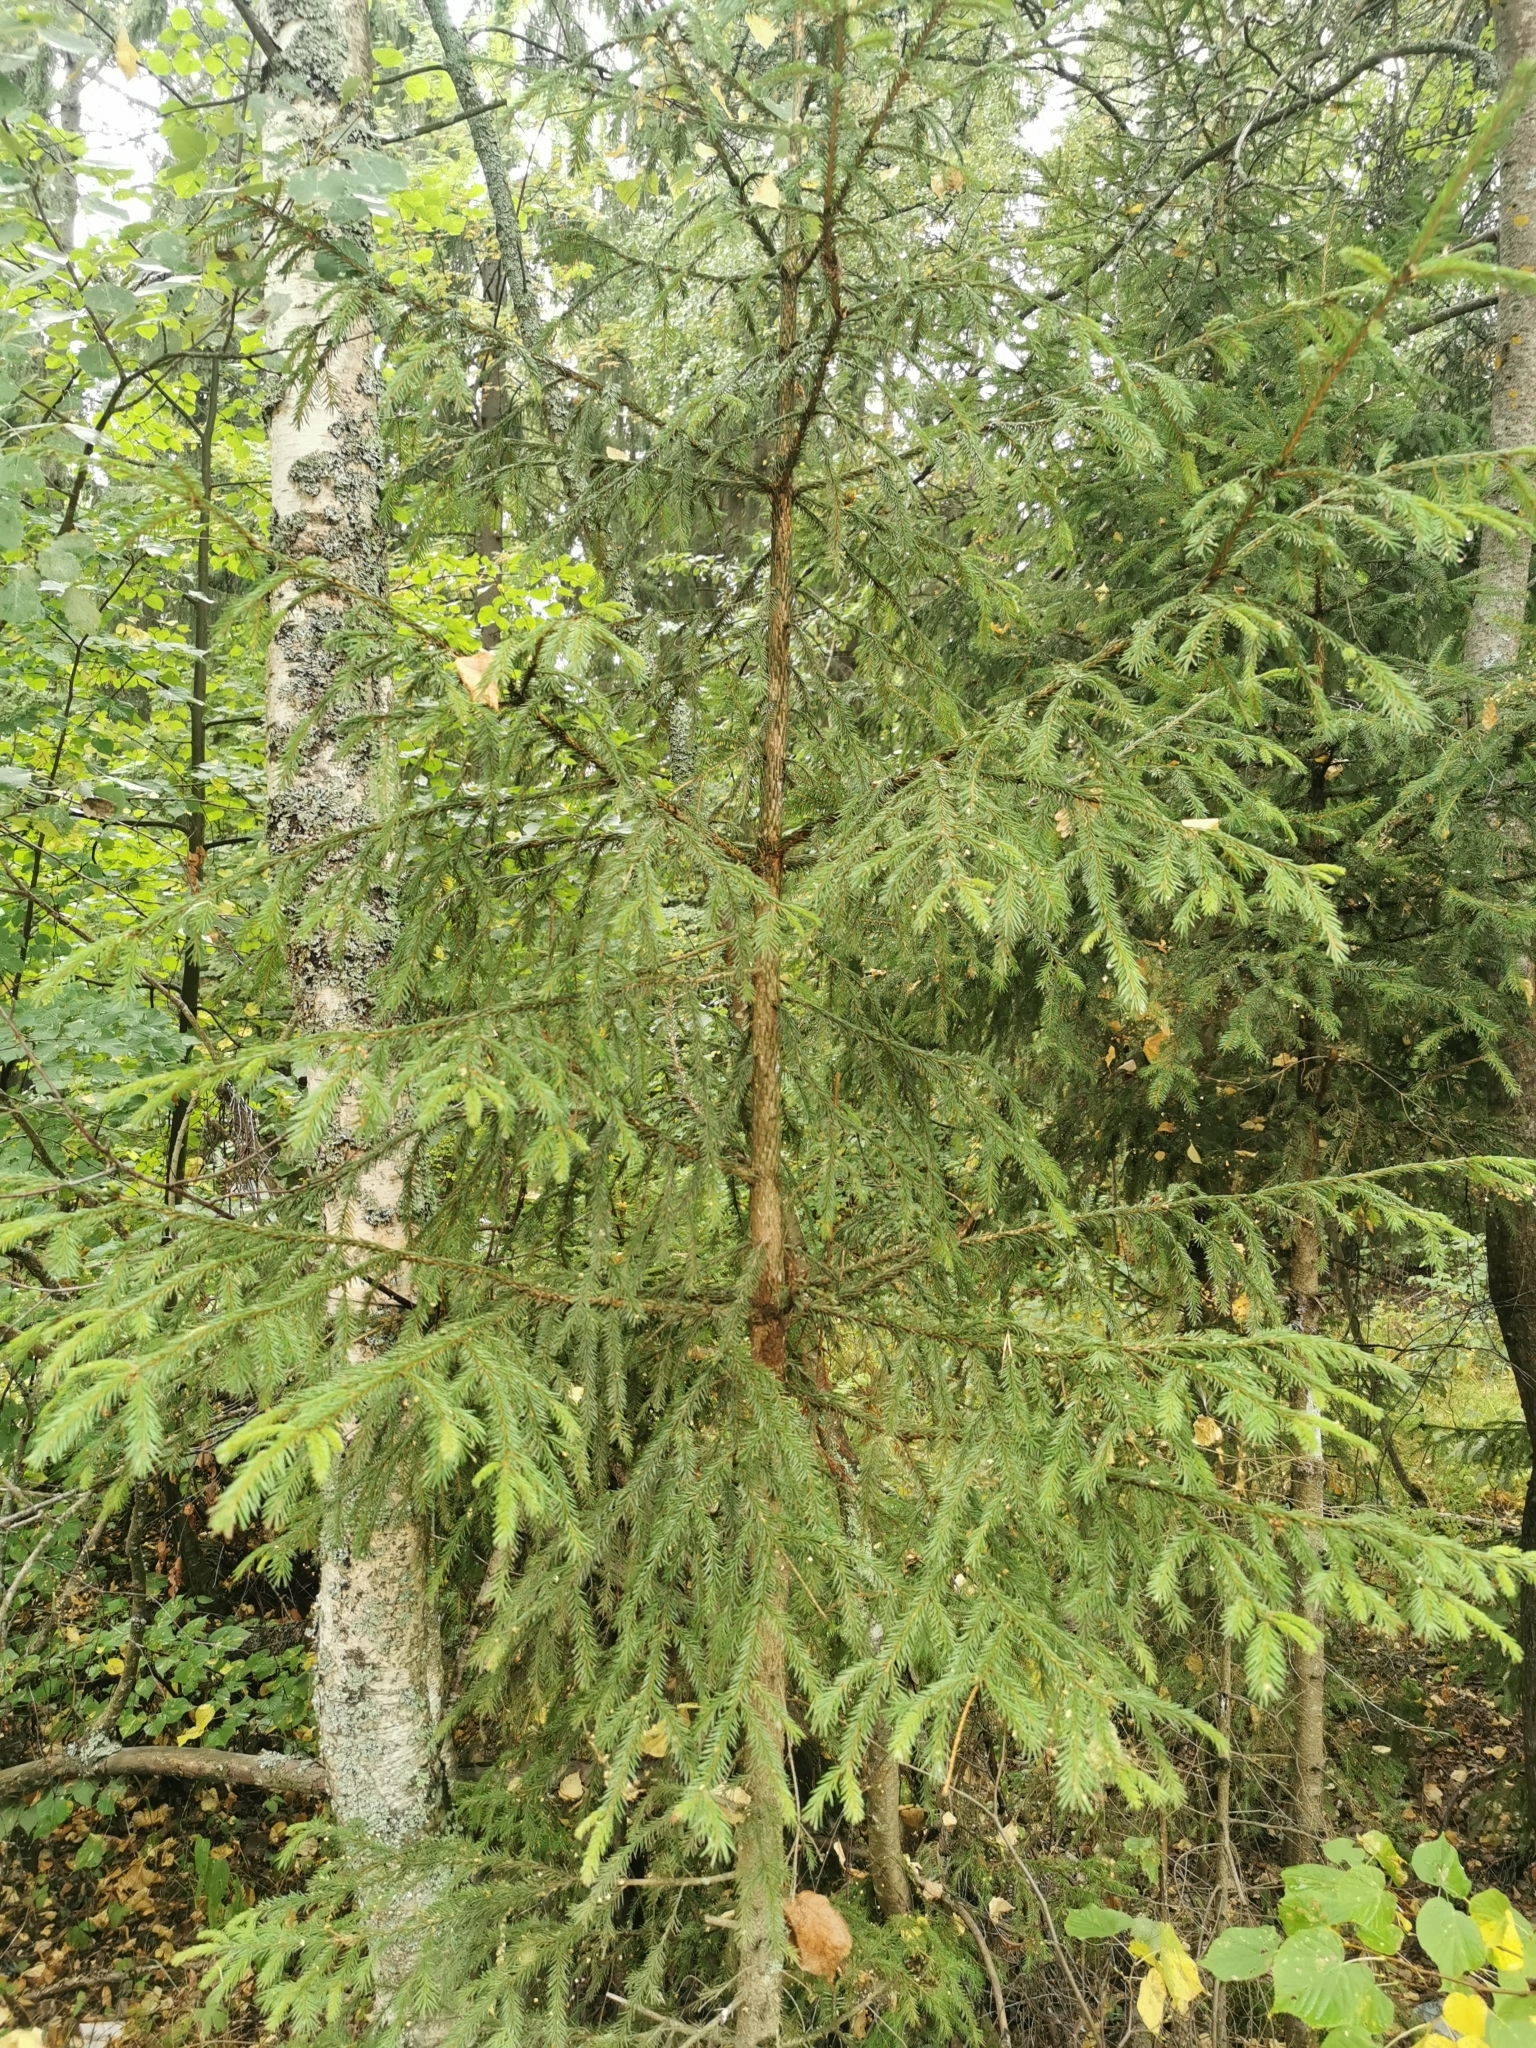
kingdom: Plantae
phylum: Tracheophyta
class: Pinopsida
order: Pinales
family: Pinaceae
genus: Picea
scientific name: Picea abies
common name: Norway spruce
